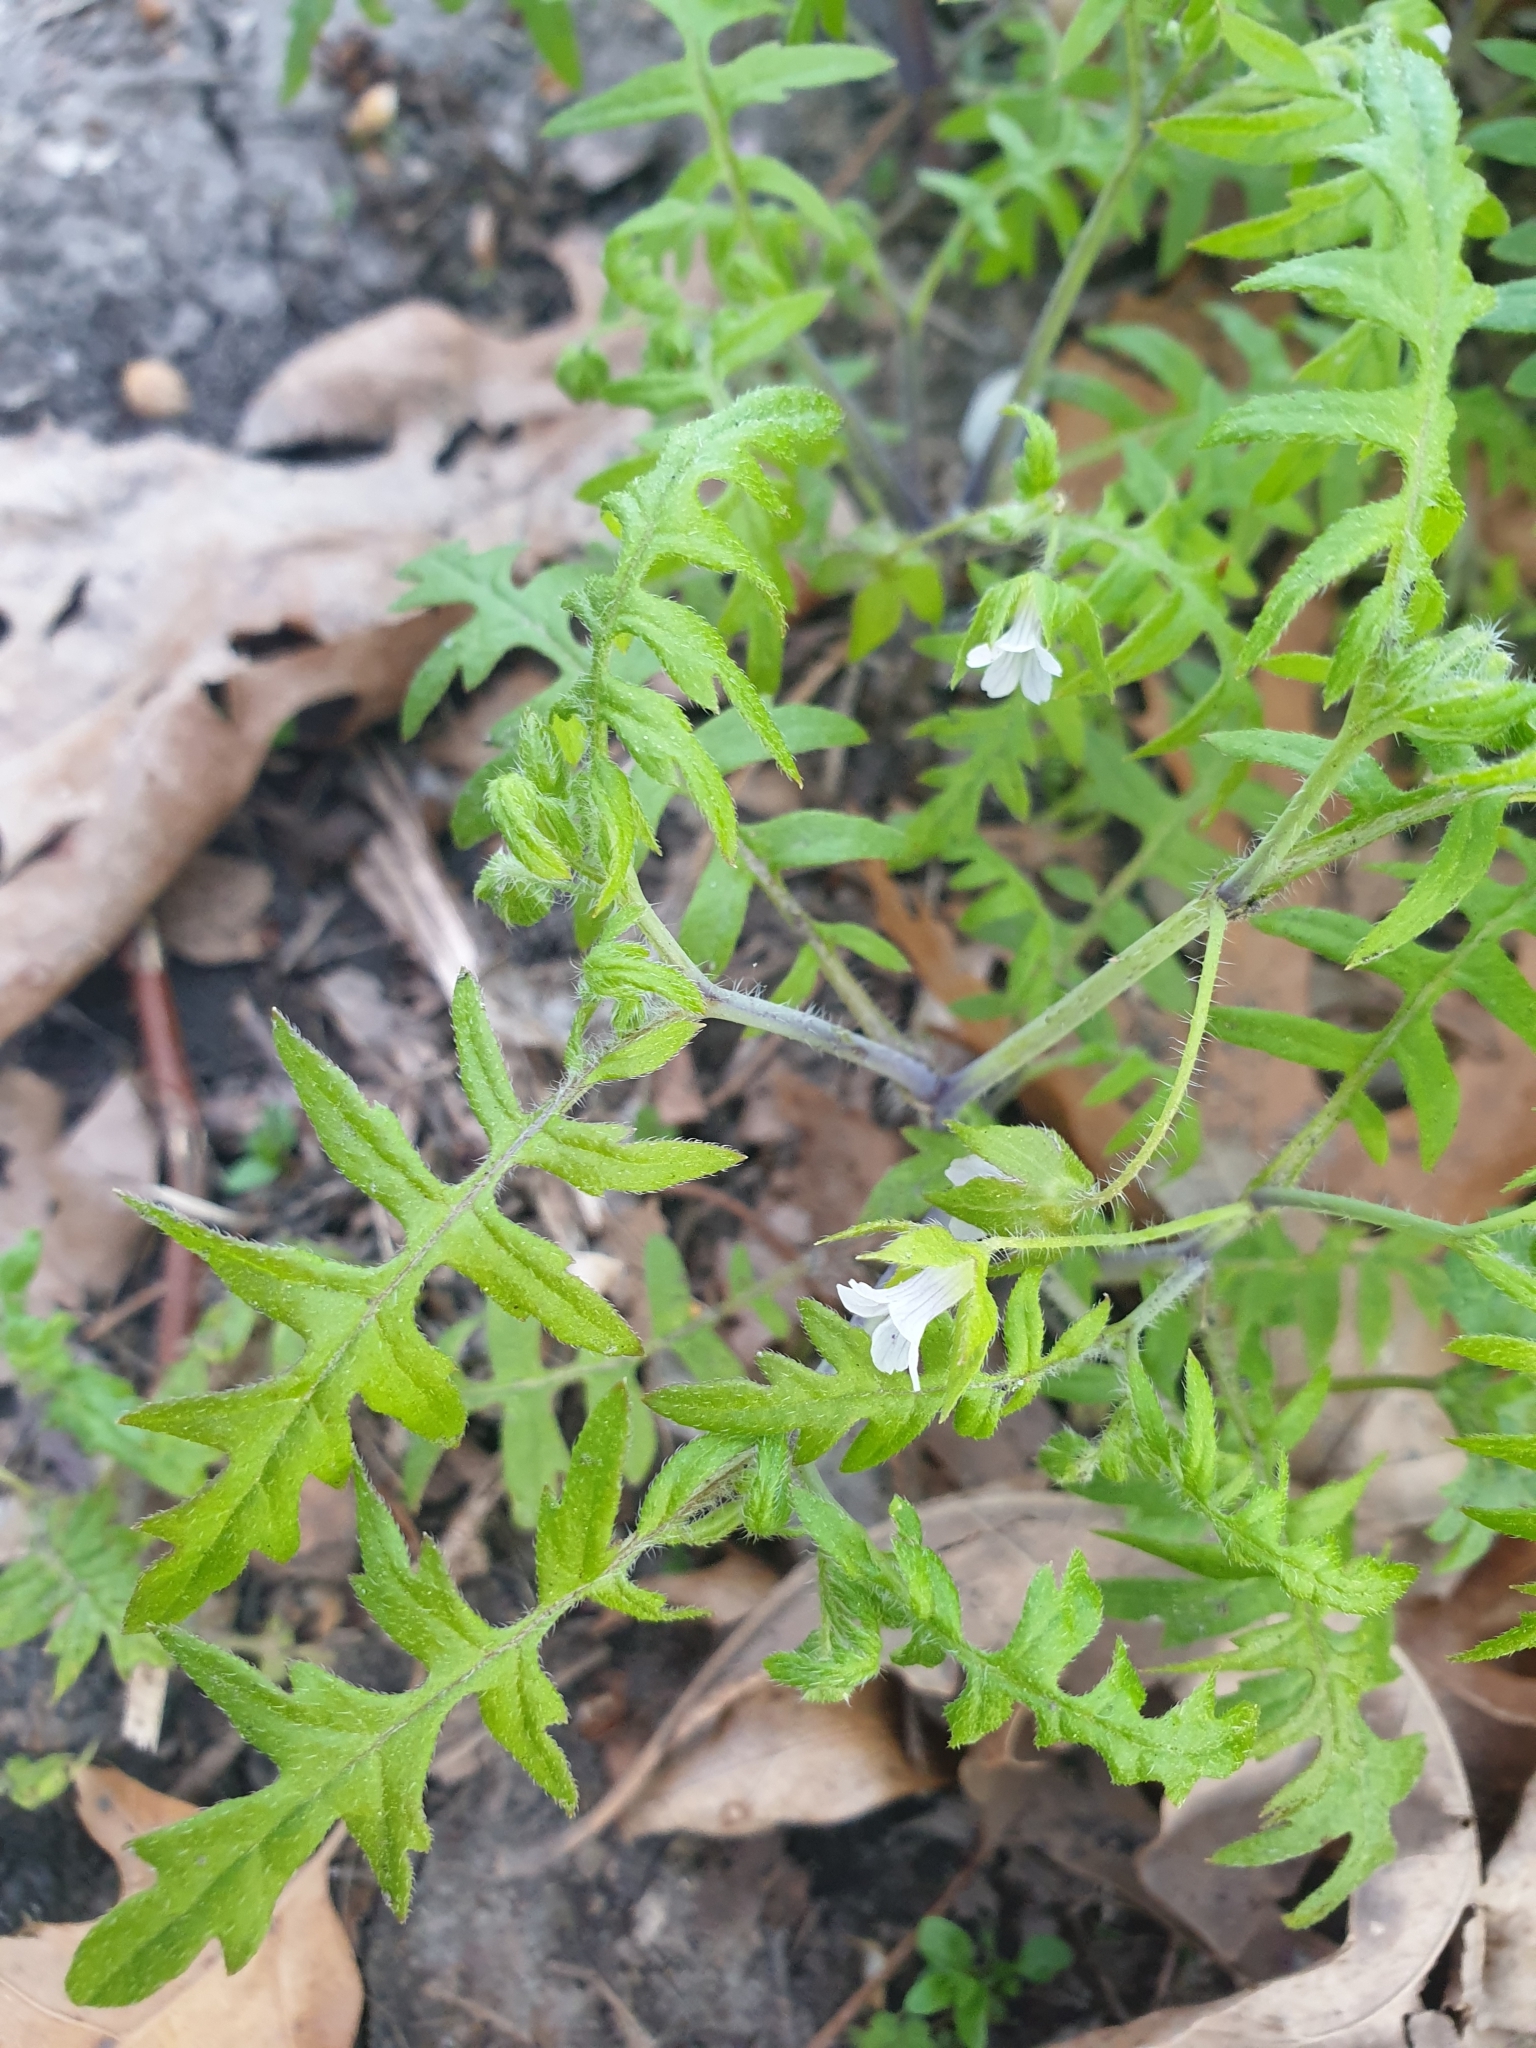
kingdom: Plantae
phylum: Tracheophyta
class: Magnoliopsida
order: Boraginales
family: Hydrophyllaceae
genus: Ellisia
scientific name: Ellisia nyctelea
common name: Aunt lucy
